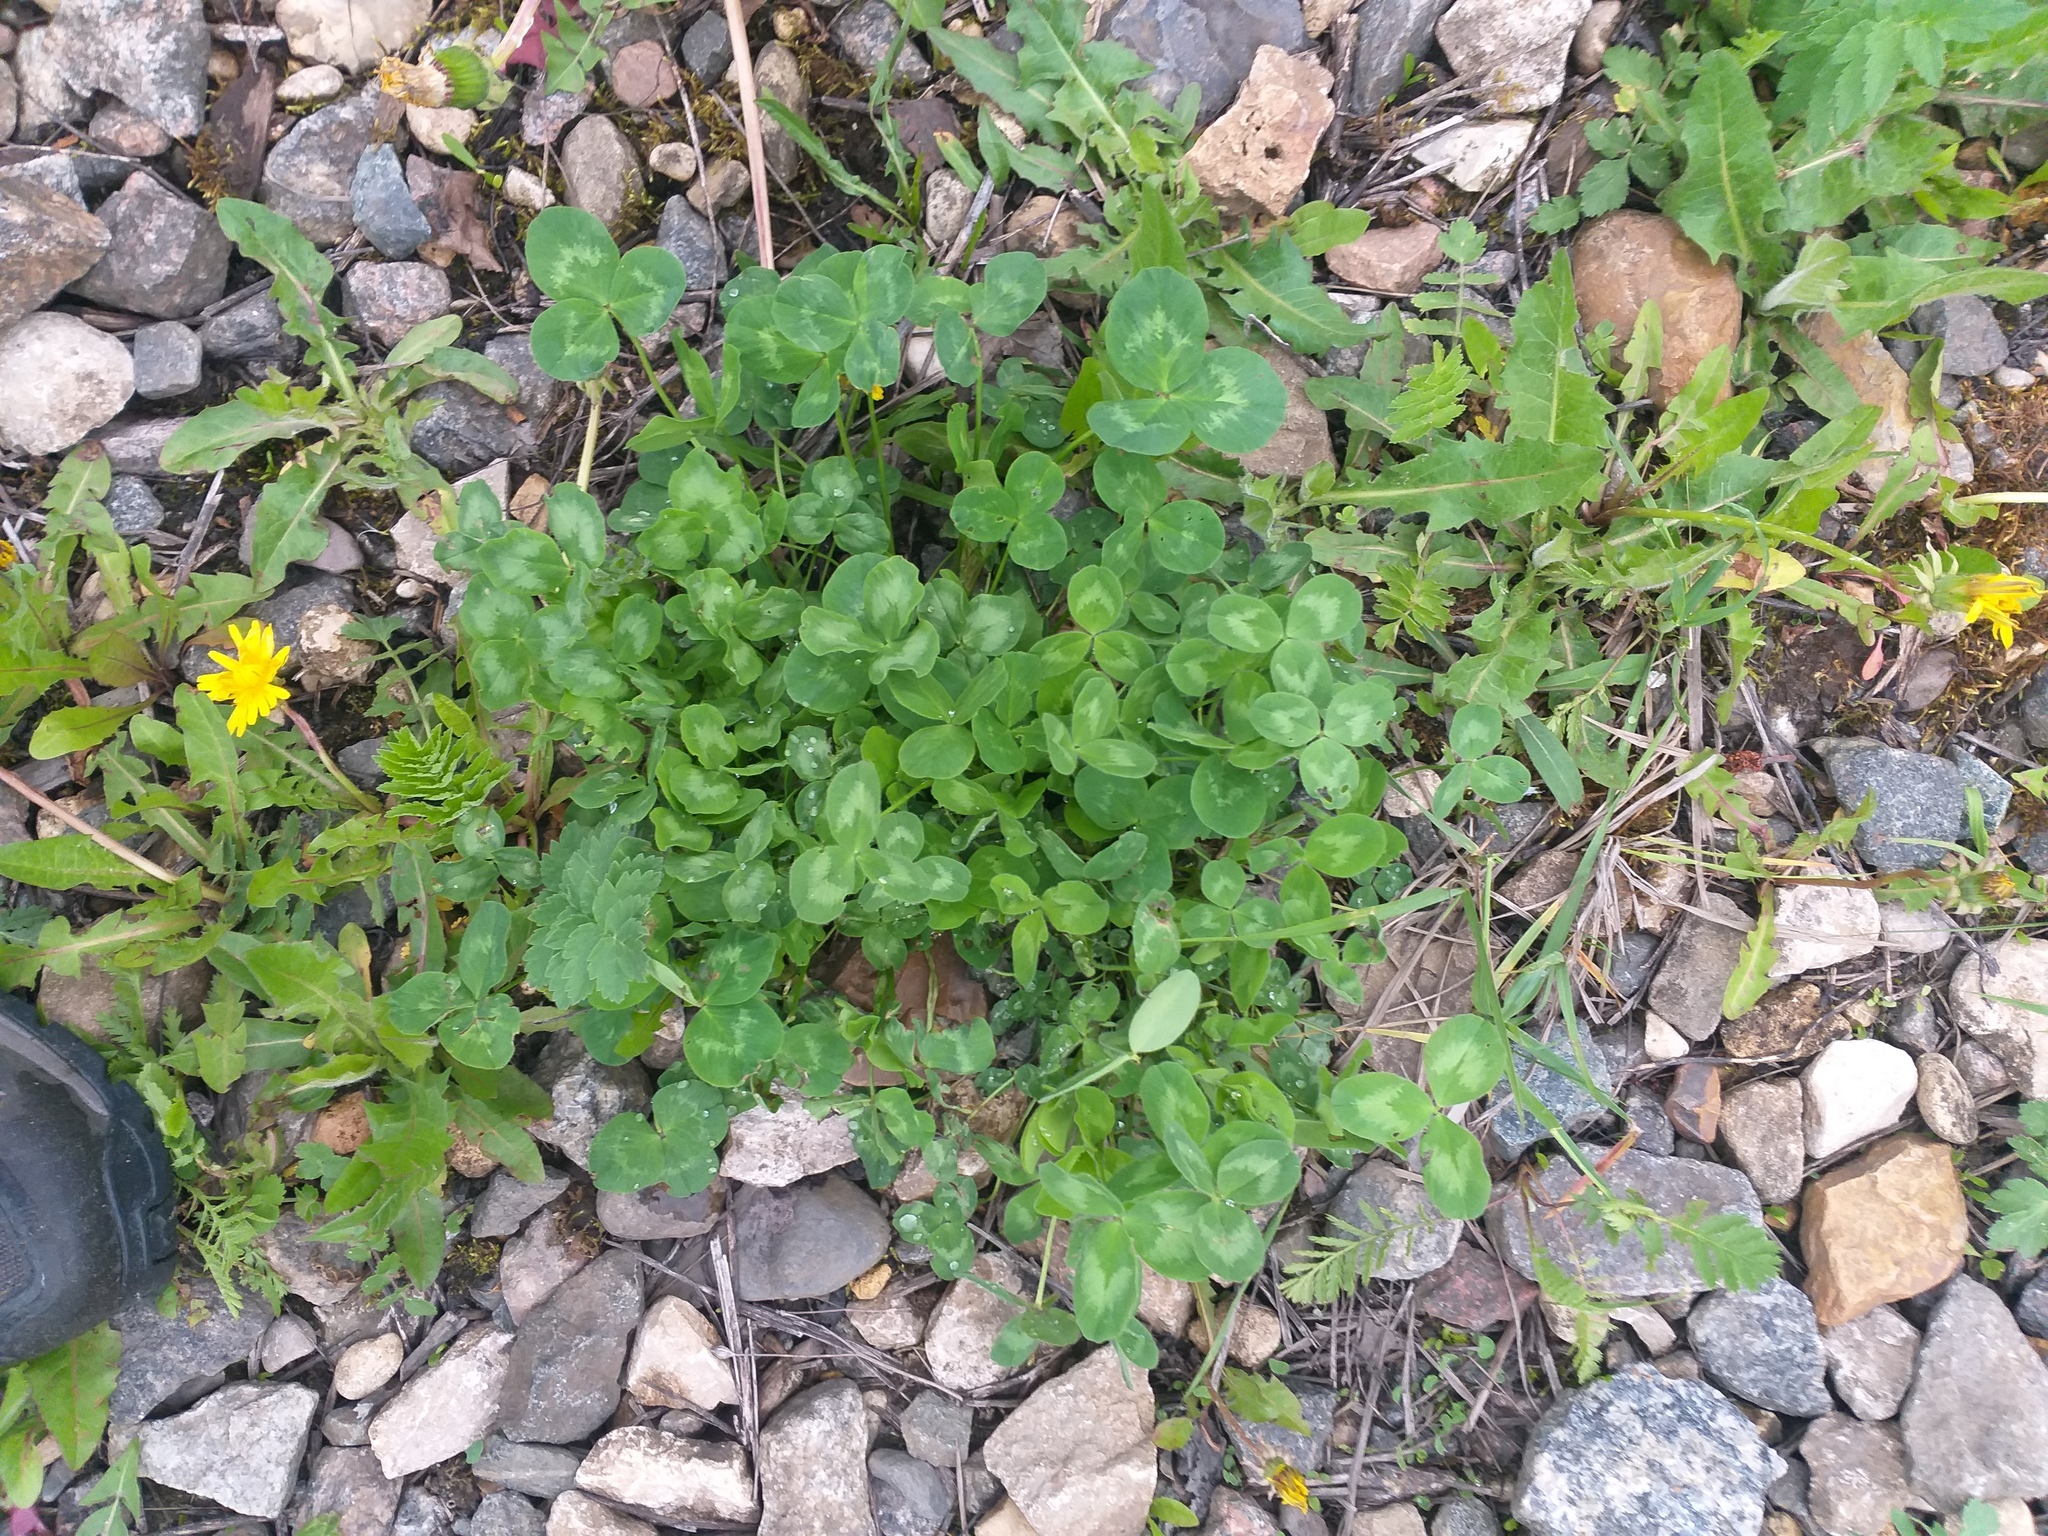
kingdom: Plantae
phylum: Tracheophyta
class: Magnoliopsida
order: Fabales
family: Fabaceae
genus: Trifolium
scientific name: Trifolium pratense
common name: Red clover
